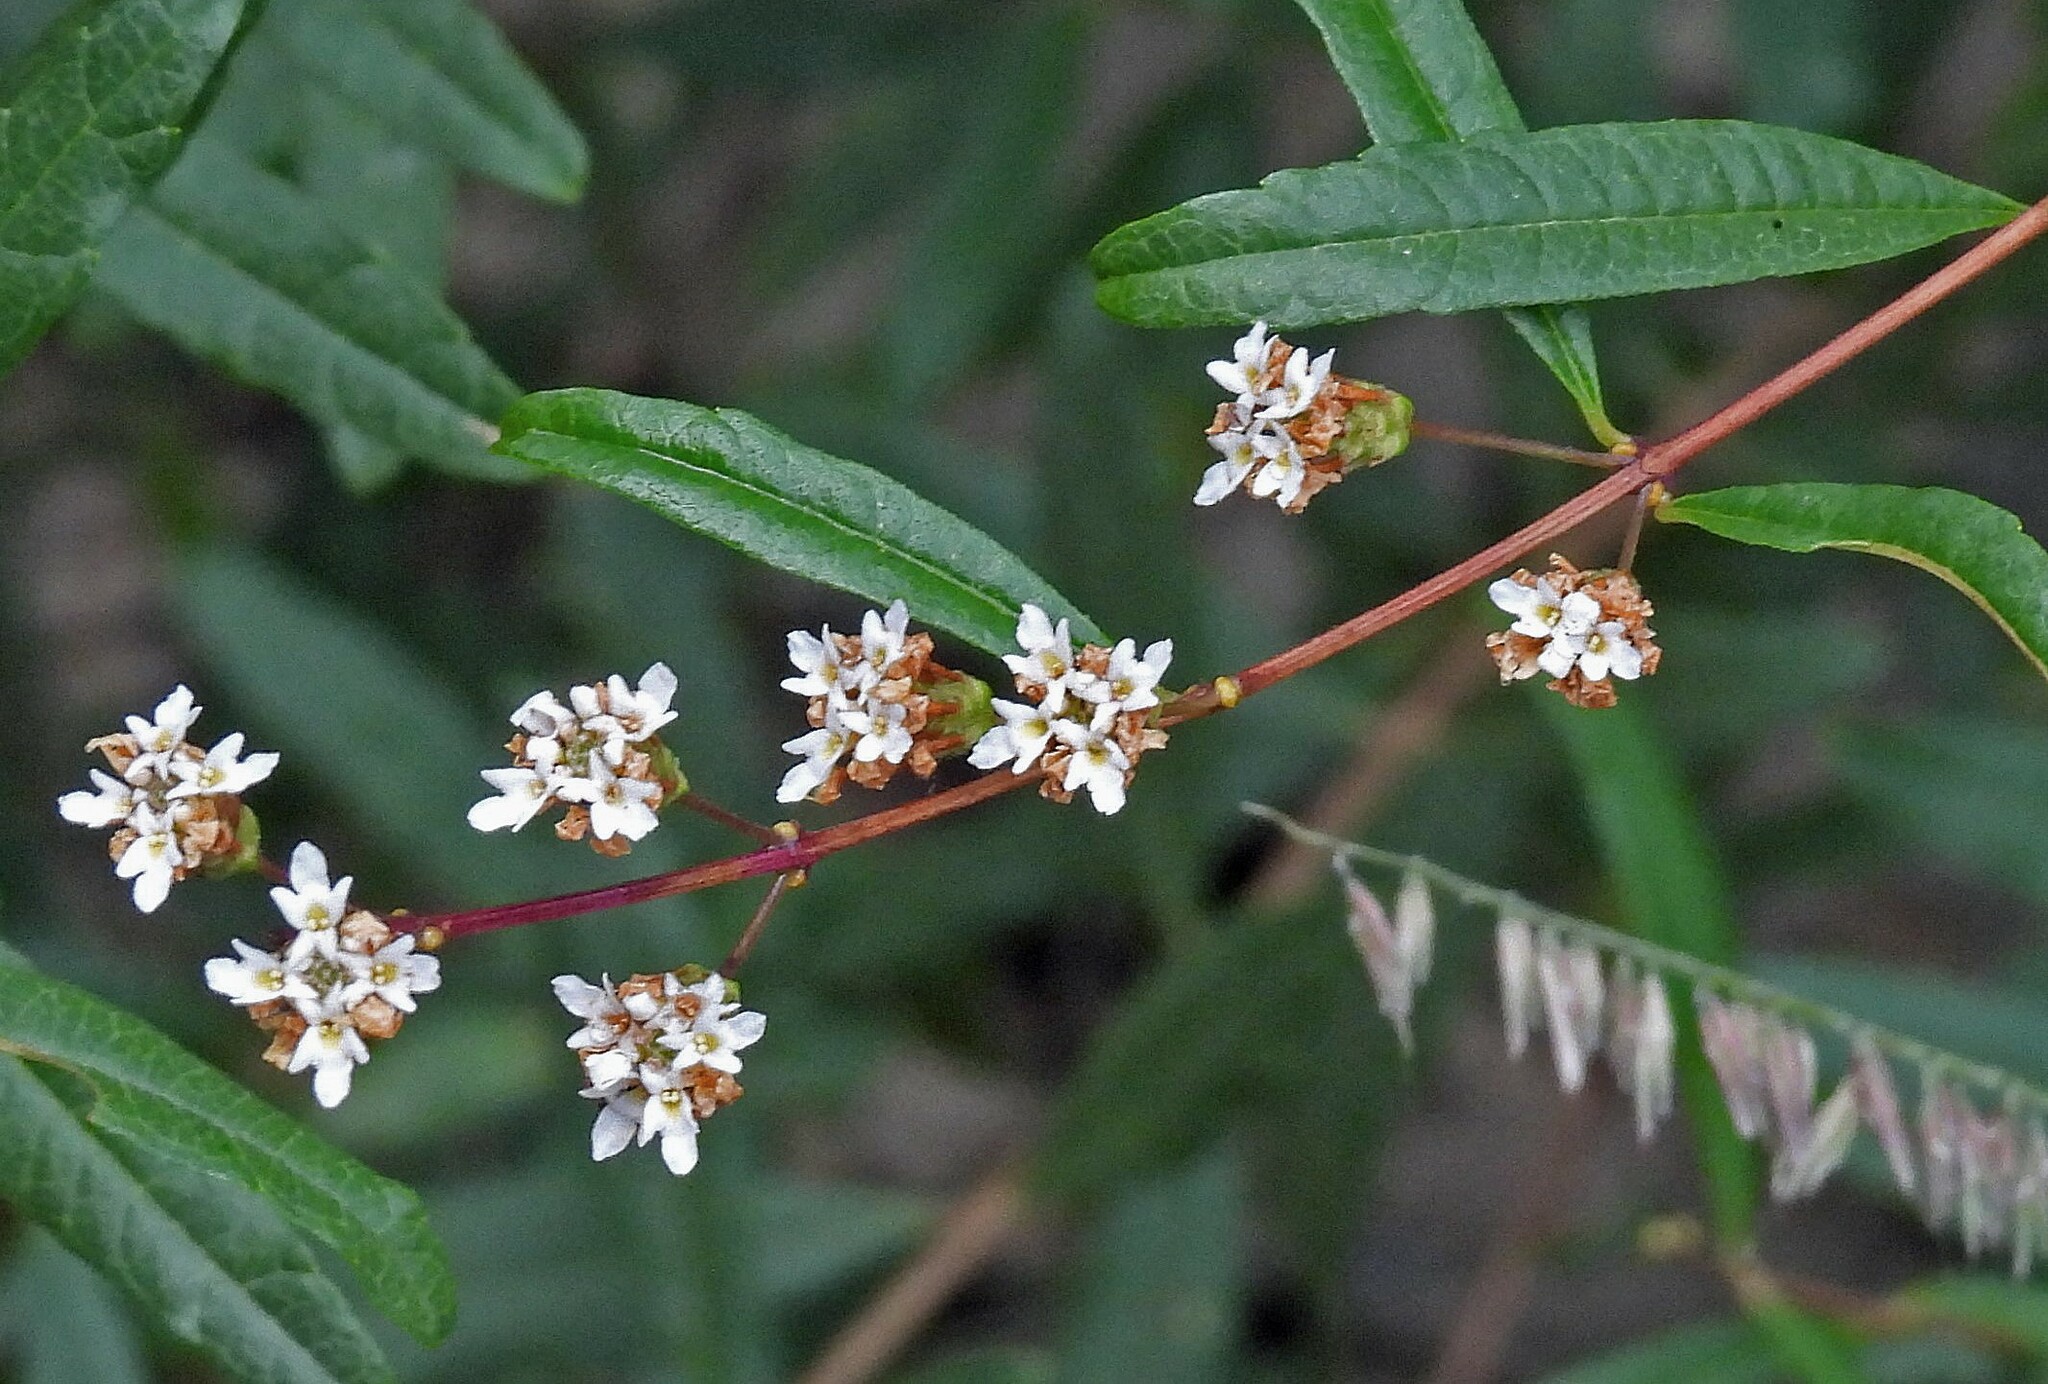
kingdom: Plantae
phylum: Tracheophyta
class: Magnoliopsida
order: Lamiales
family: Verbenaceae
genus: Lippia
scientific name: Lippia integrifolia
